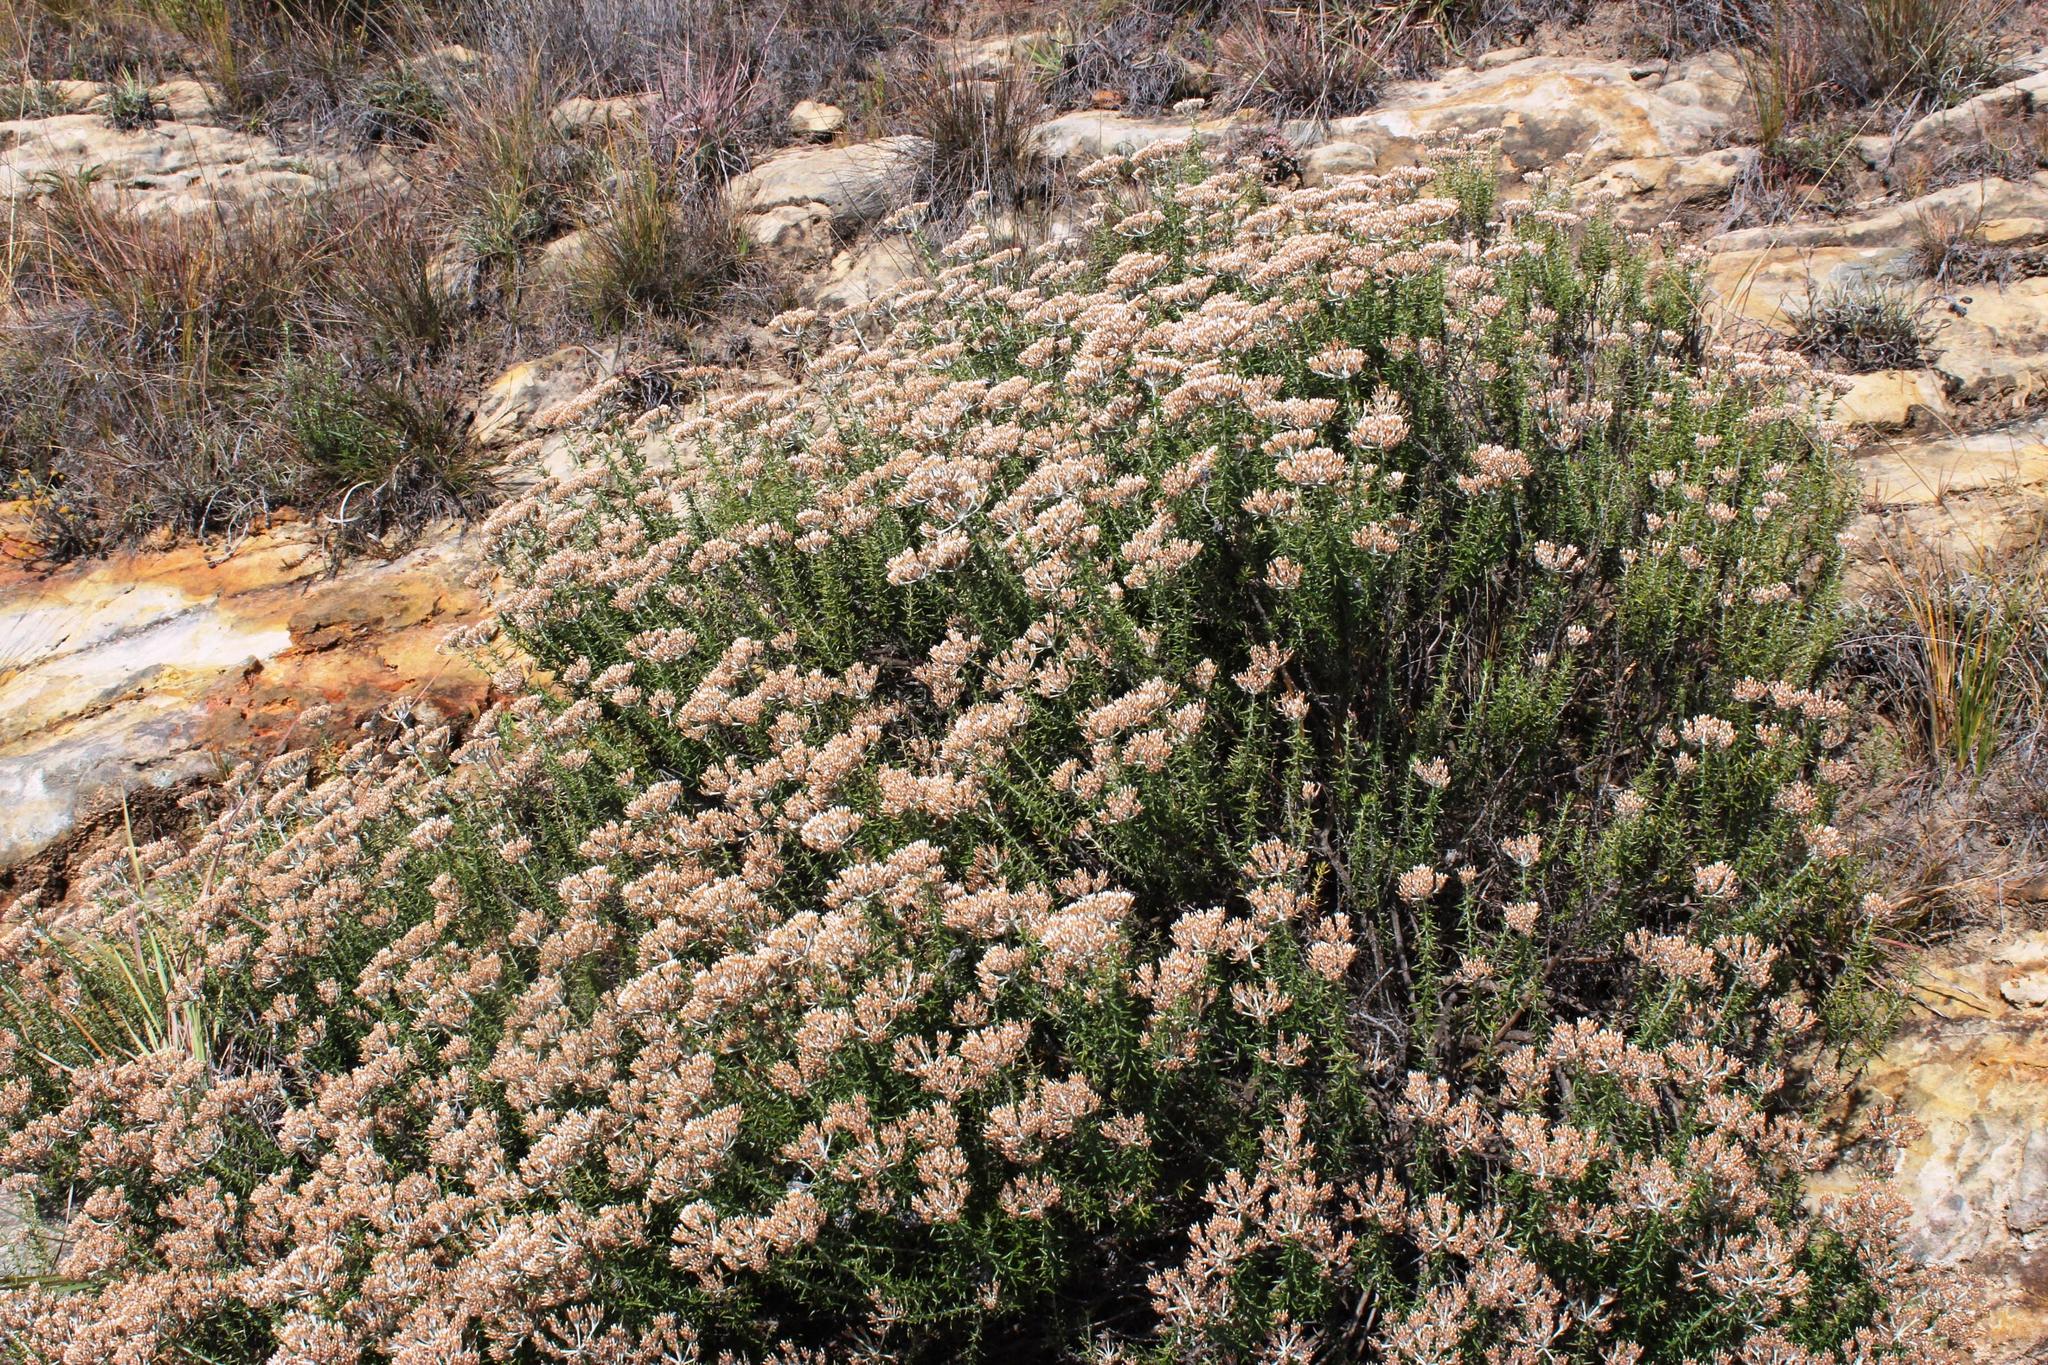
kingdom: Plantae
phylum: Tracheophyta
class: Magnoliopsida
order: Asterales
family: Asteraceae
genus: Metalasia
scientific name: Metalasia densa
